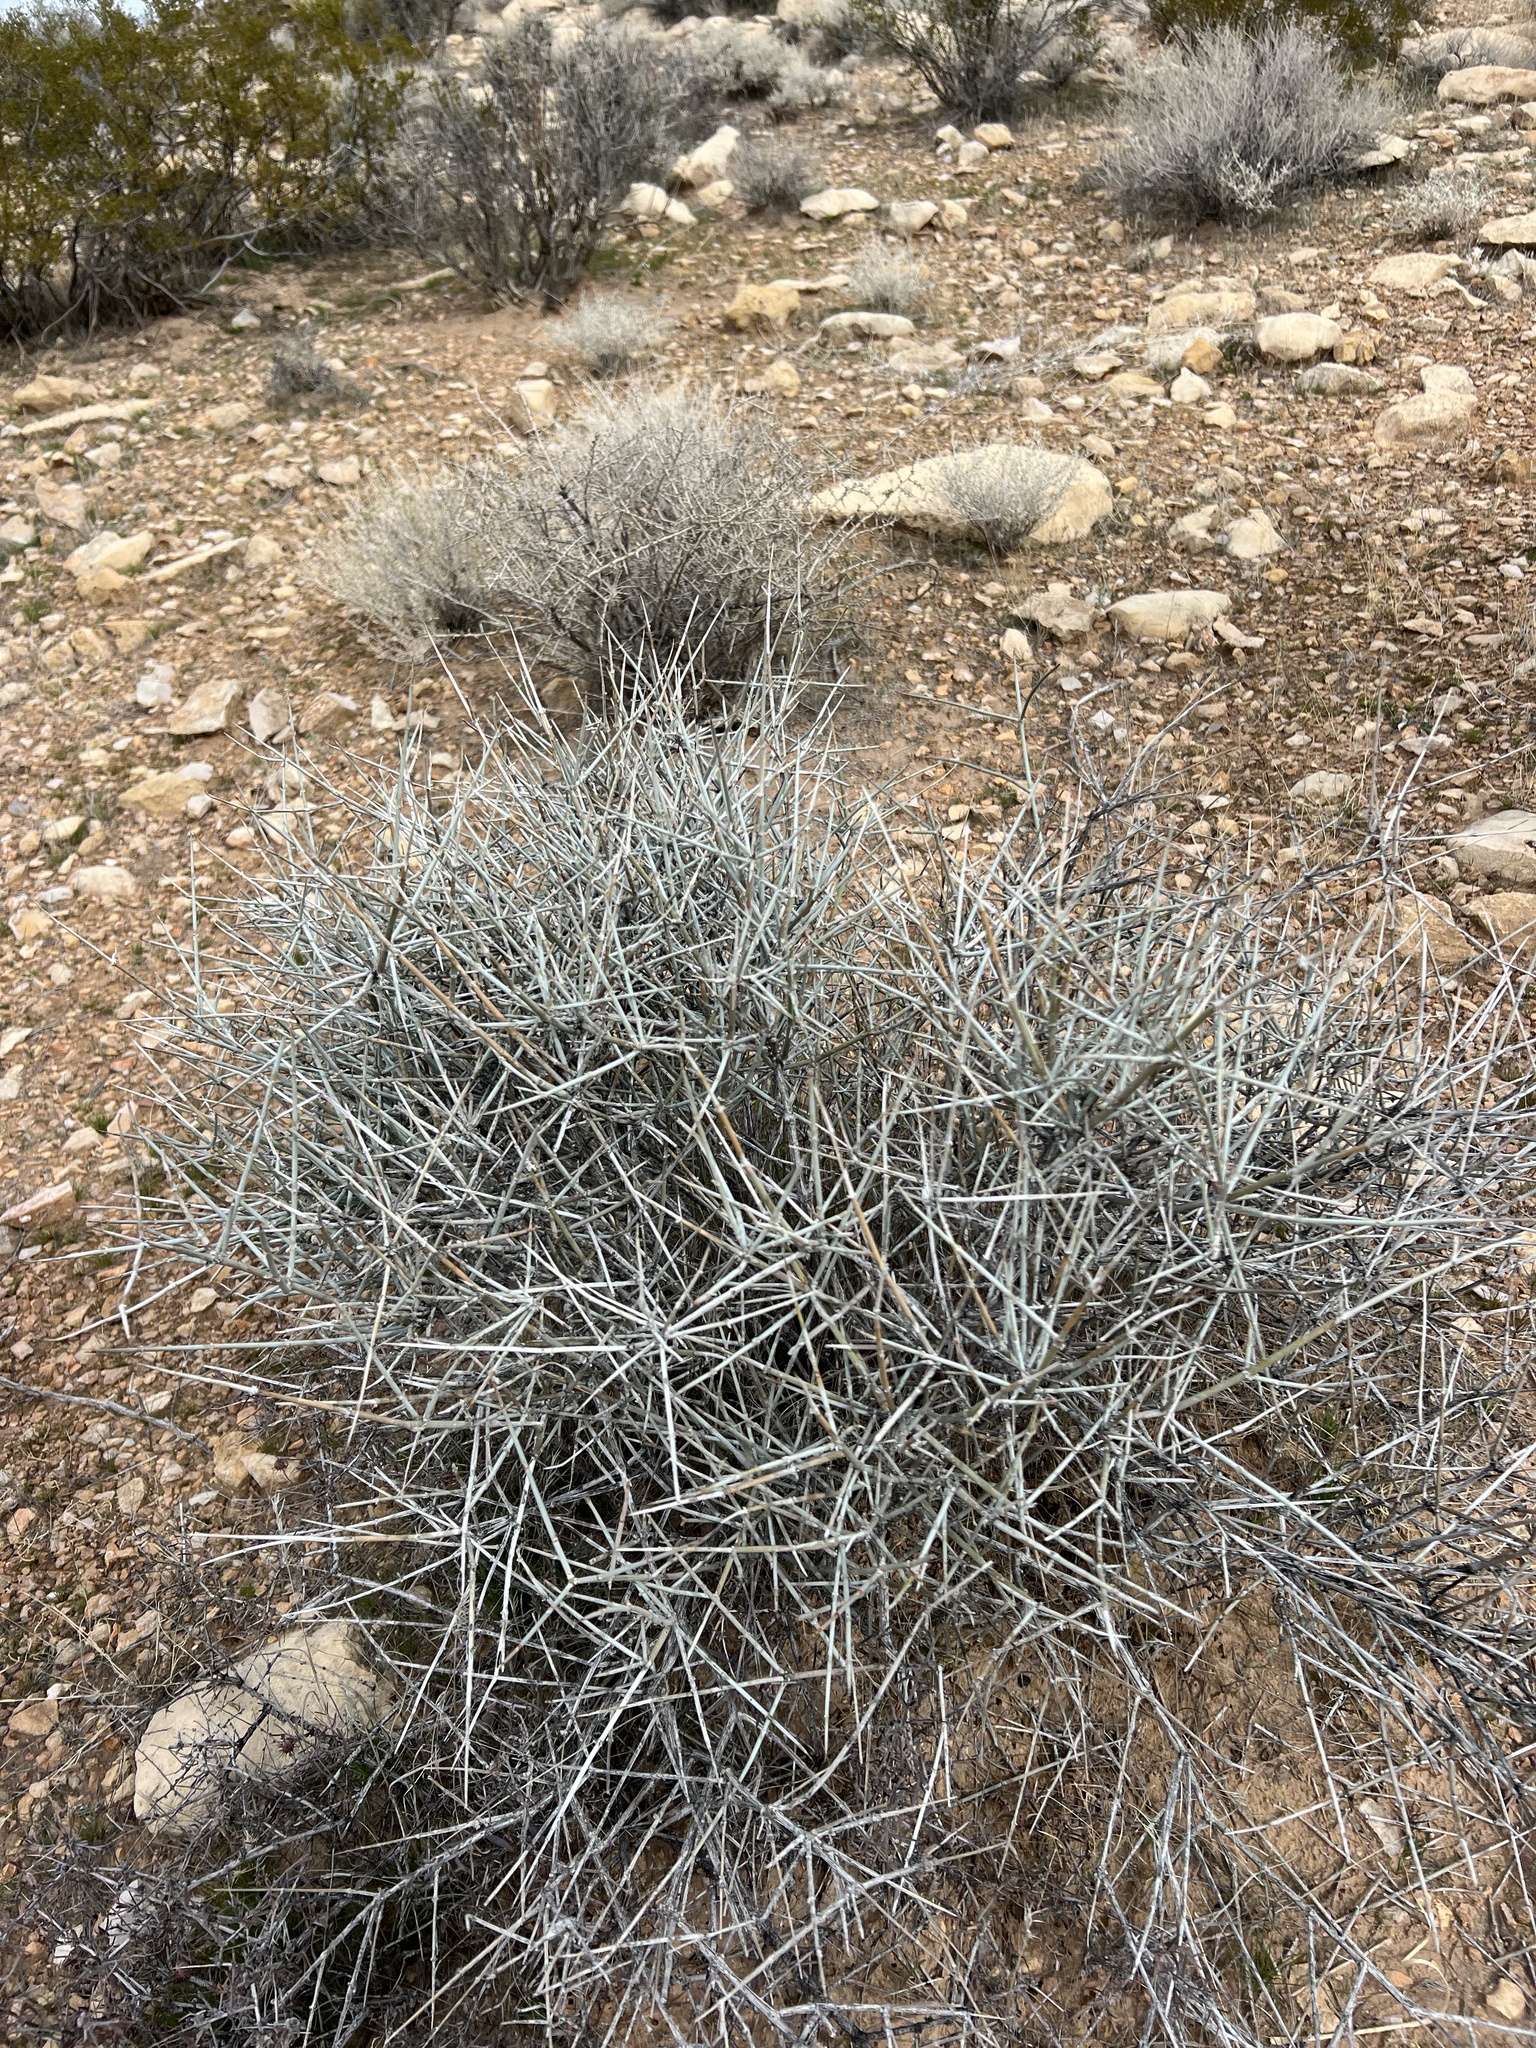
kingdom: Plantae
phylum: Tracheophyta
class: Gnetopsida
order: Ephedrales
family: Ephedraceae
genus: Ephedra
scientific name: Ephedra nevadensis
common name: Gray ephedra
